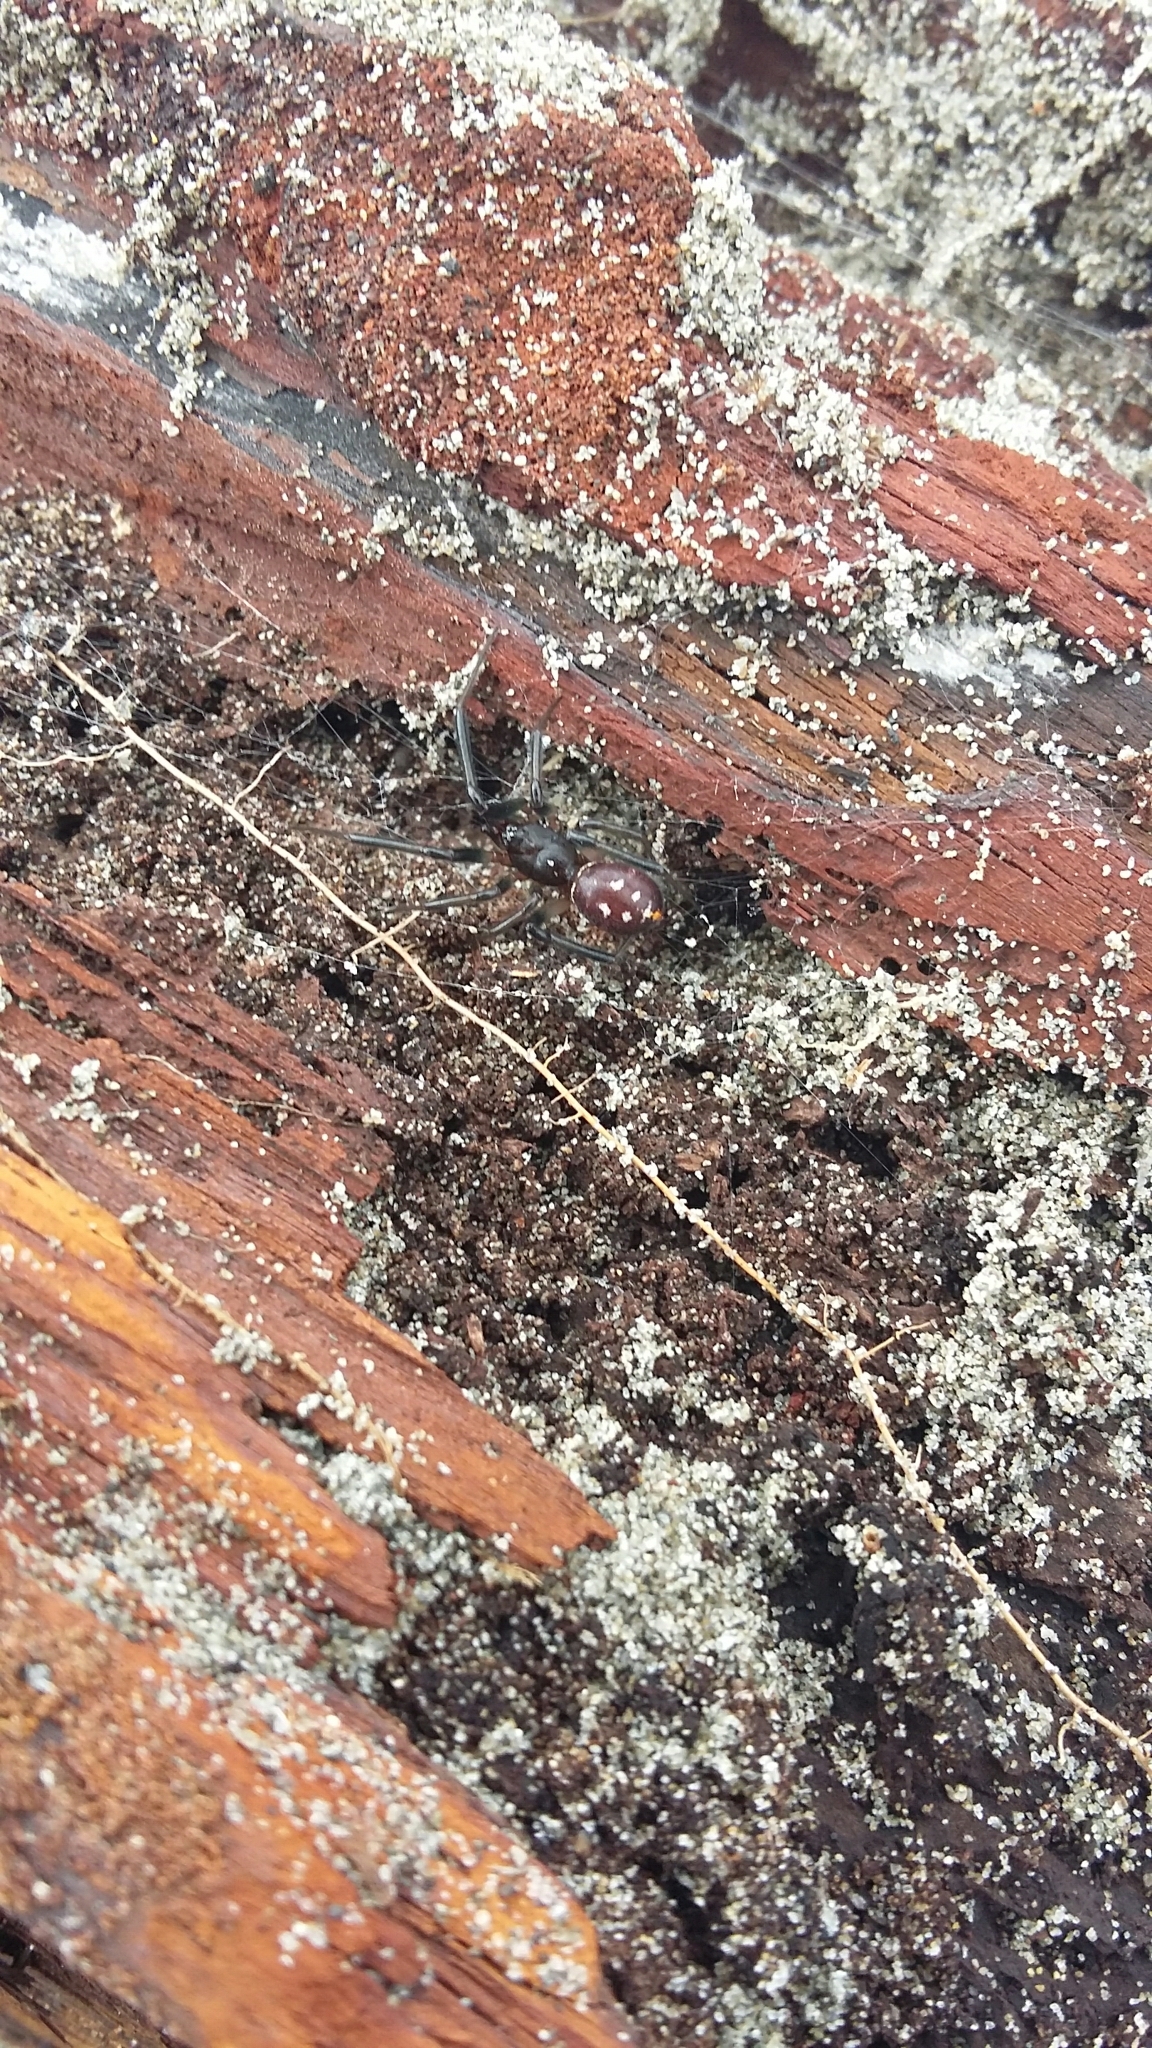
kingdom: Animalia
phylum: Arthropoda
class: Arachnida
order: Araneae
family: Theridiidae
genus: Steatoda
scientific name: Steatoda capensis
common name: Cobweb weaver
